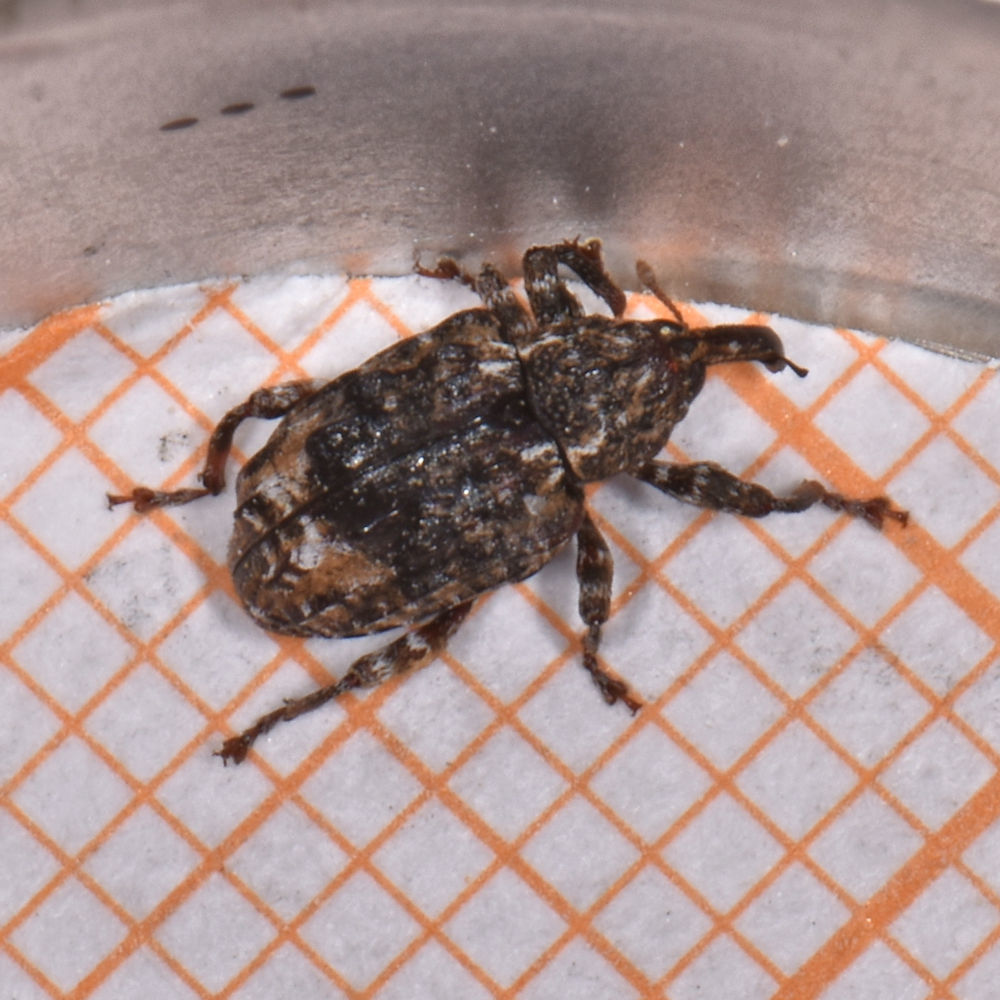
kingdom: Animalia
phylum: Arthropoda
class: Insecta
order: Coleoptera
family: Curculionidae
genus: Conotrachelus
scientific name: Conotrachelus nenuphar
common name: Plum curculio
